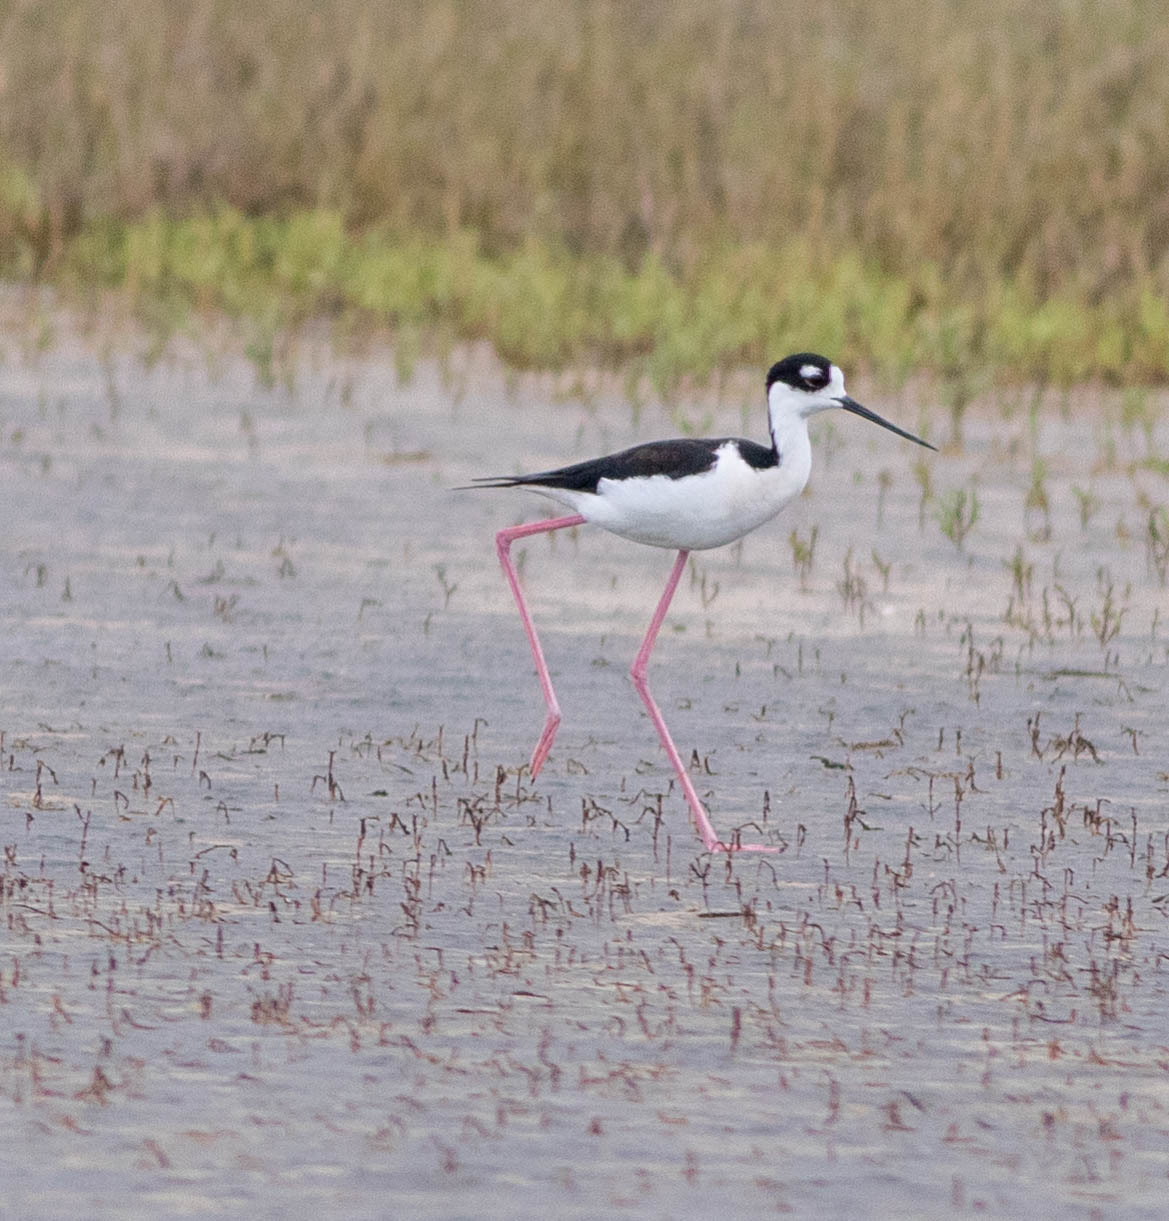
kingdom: Animalia
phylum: Chordata
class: Aves
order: Charadriiformes
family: Recurvirostridae
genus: Himantopus
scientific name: Himantopus mexicanus
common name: Black-necked stilt
